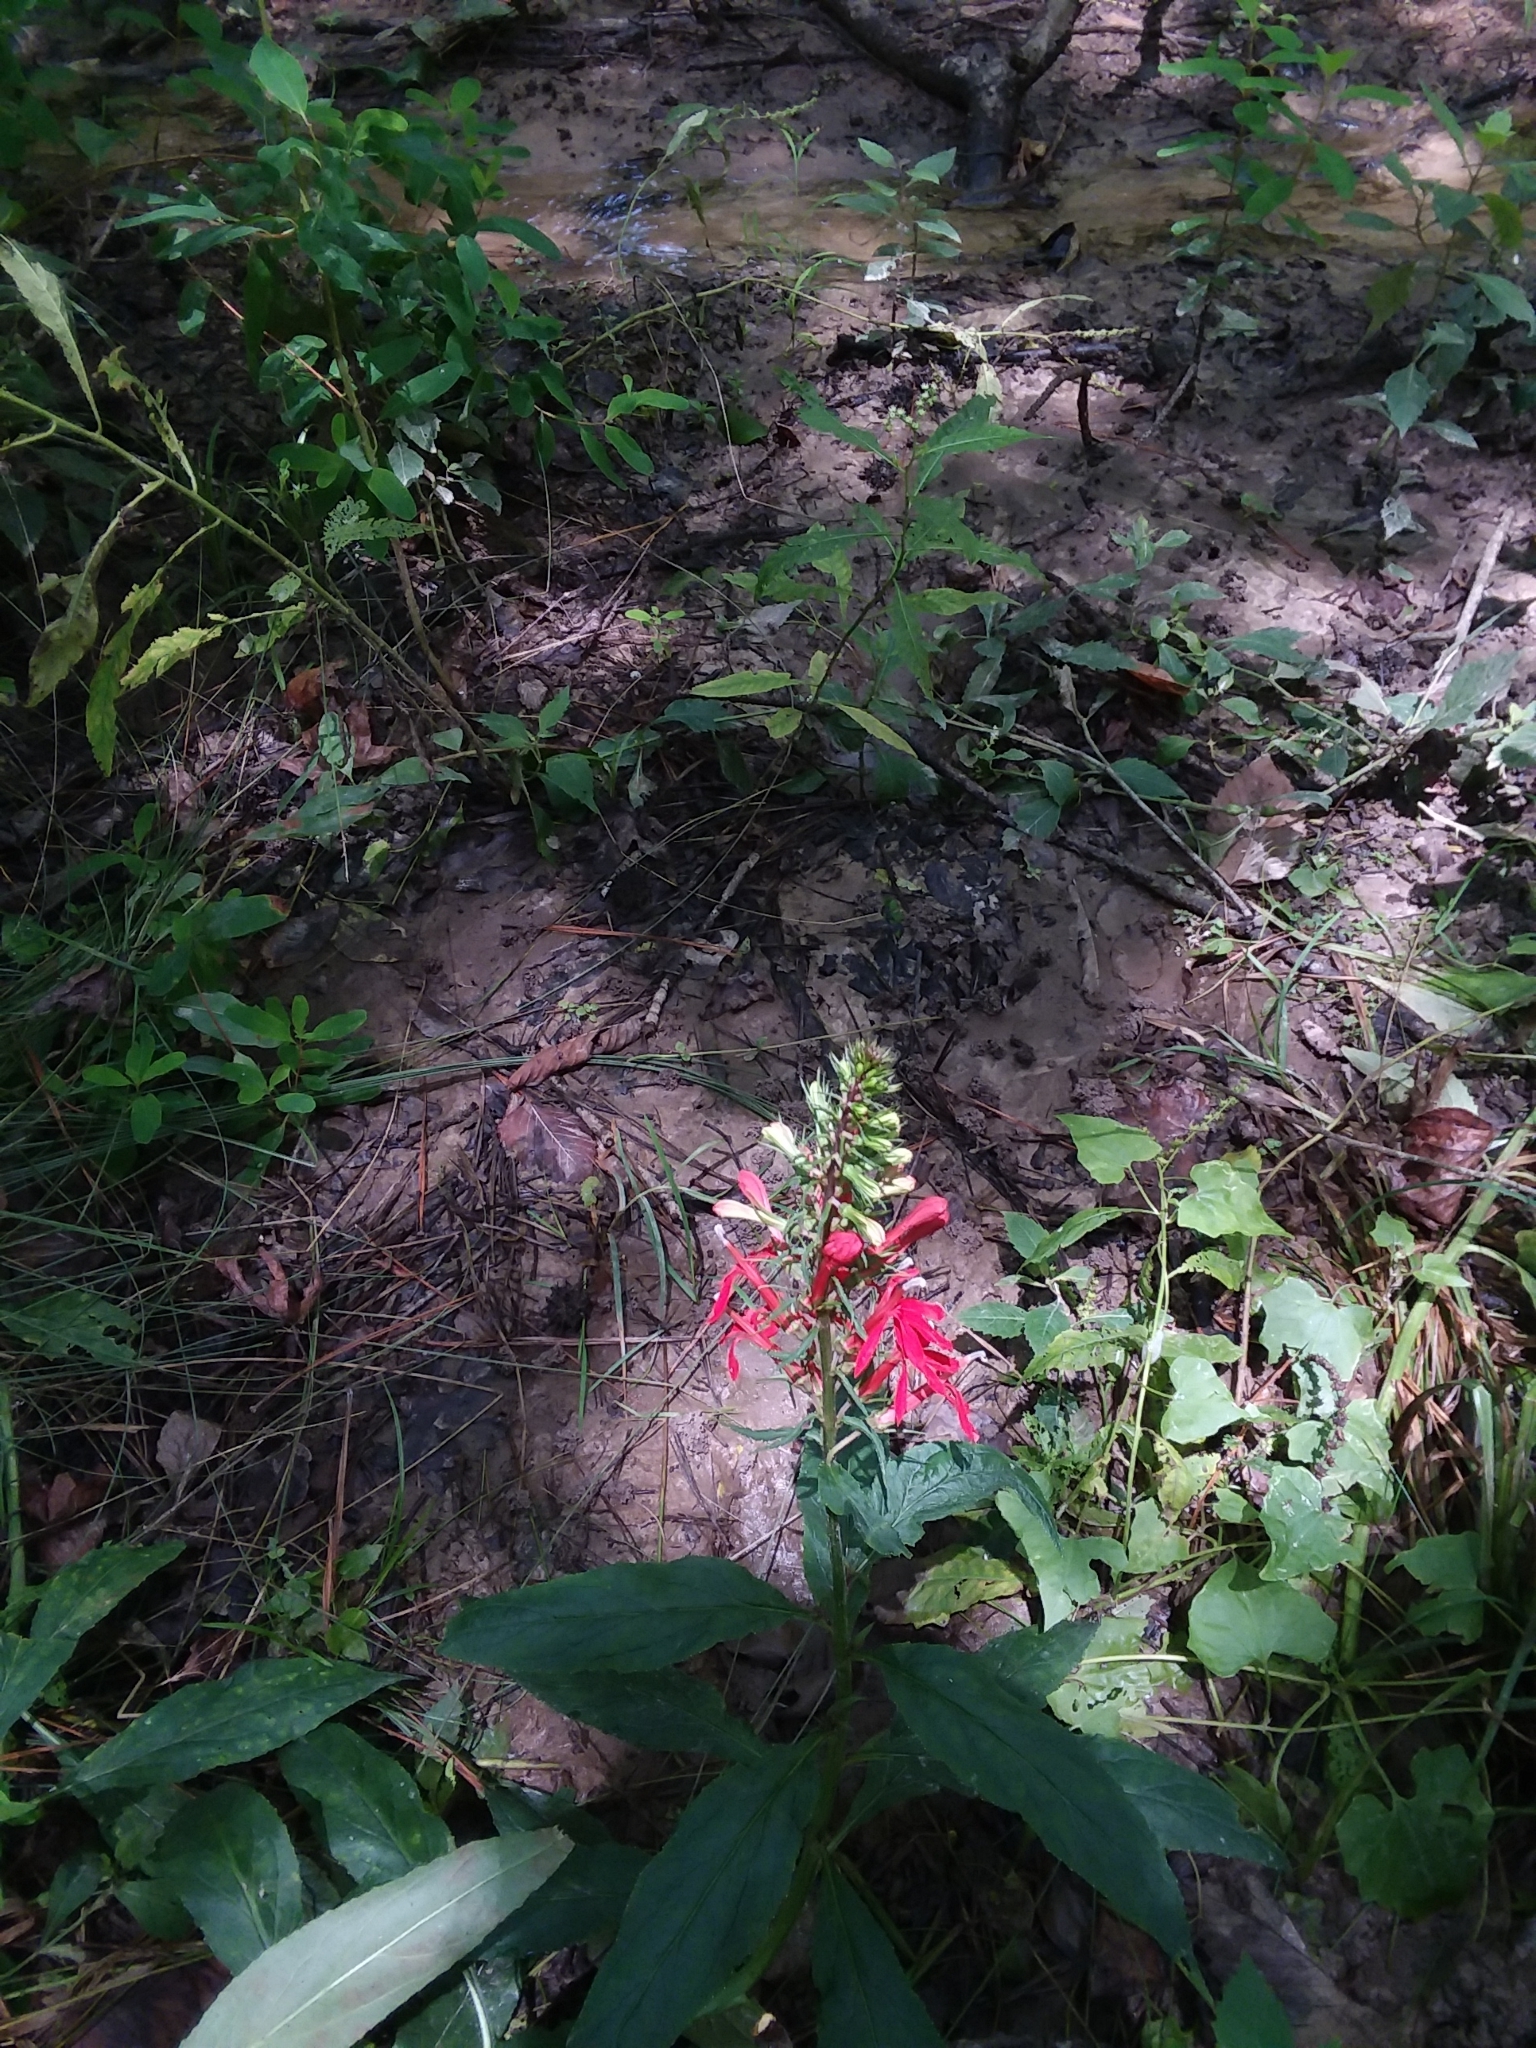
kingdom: Plantae
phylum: Tracheophyta
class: Magnoliopsida
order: Asterales
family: Campanulaceae
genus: Lobelia
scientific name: Lobelia cardinalis
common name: Cardinal flower
